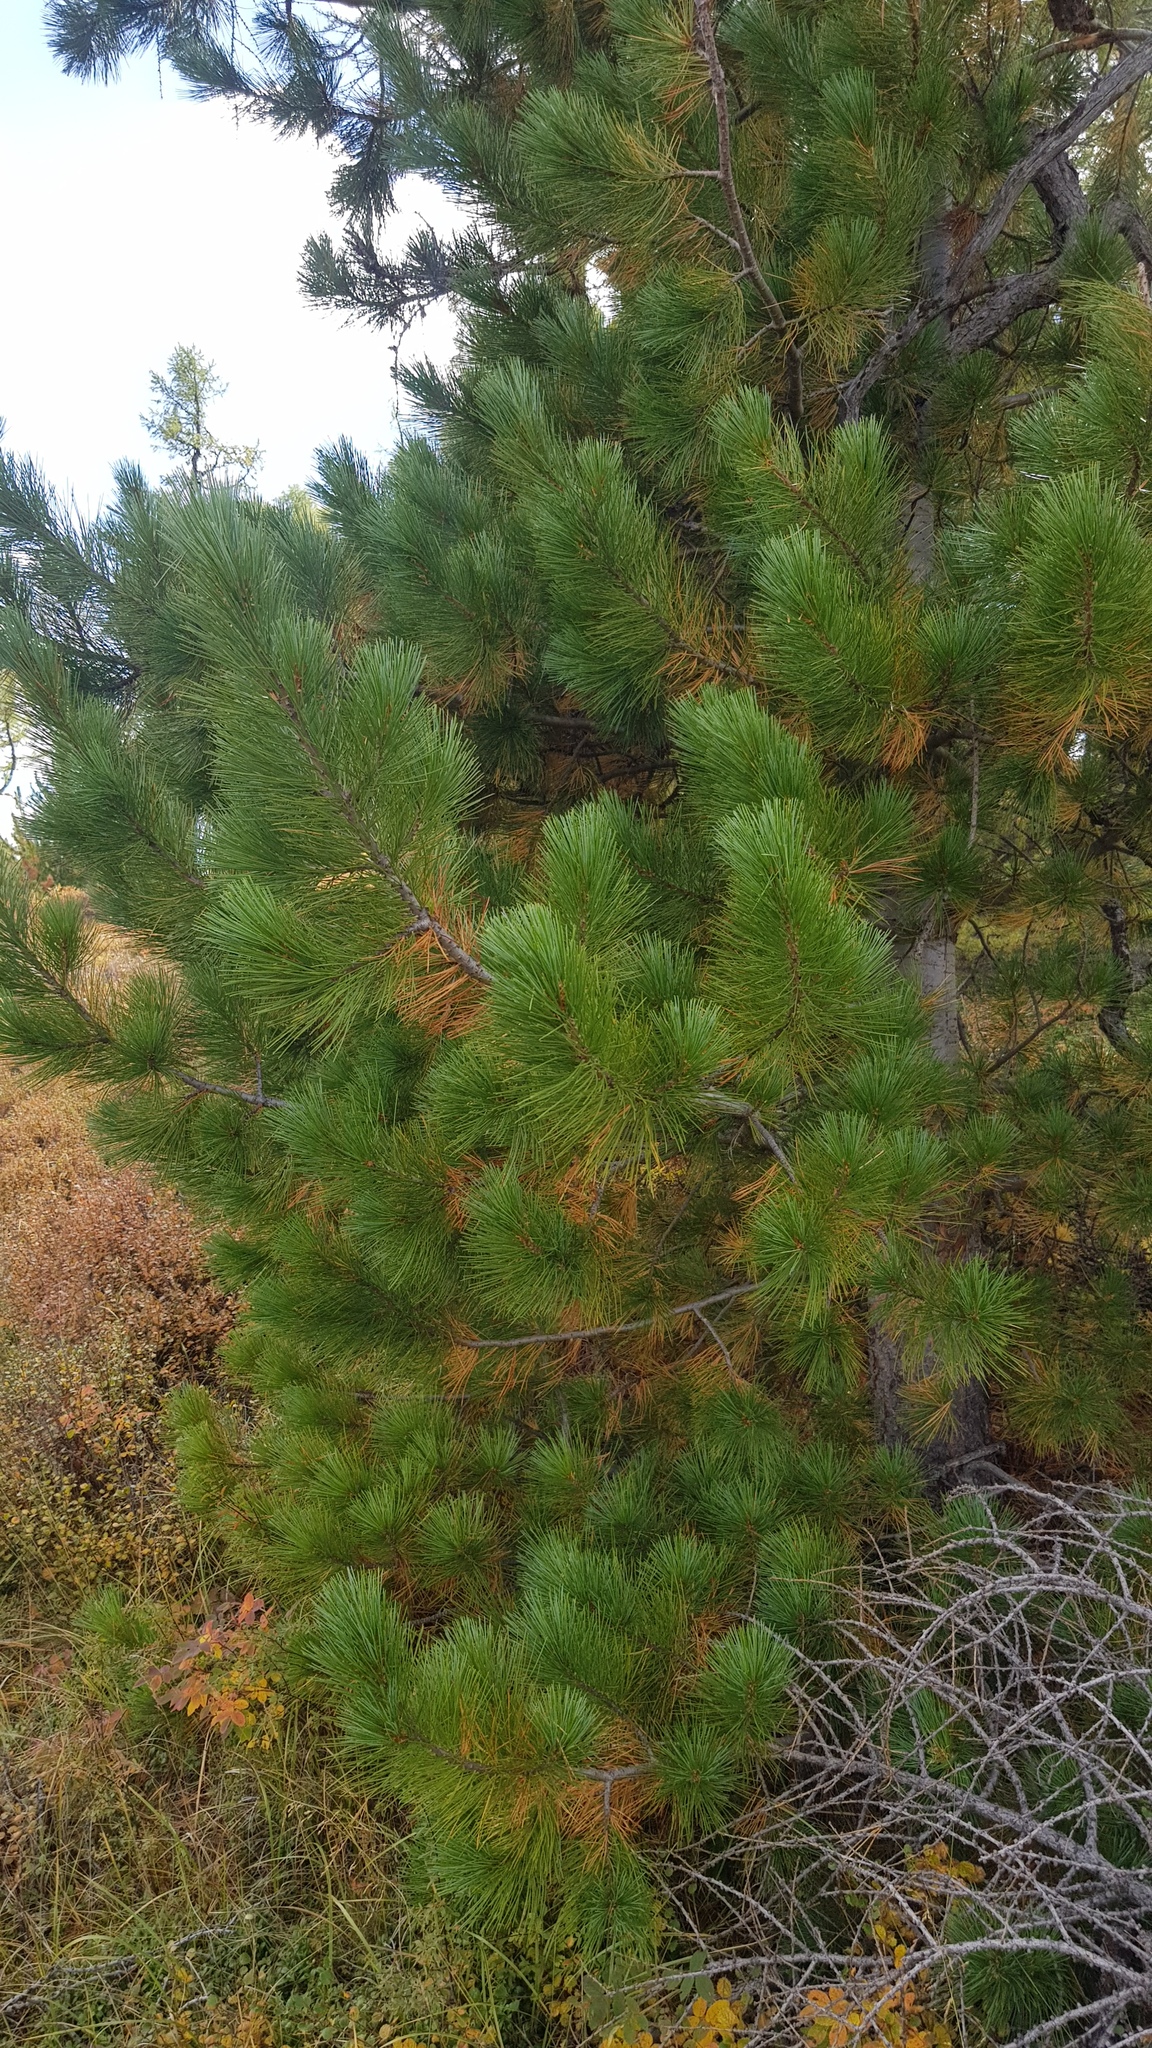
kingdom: Plantae
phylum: Tracheophyta
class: Pinopsida
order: Pinales
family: Pinaceae
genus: Pinus
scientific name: Pinus sibirica
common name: Siberian pine
